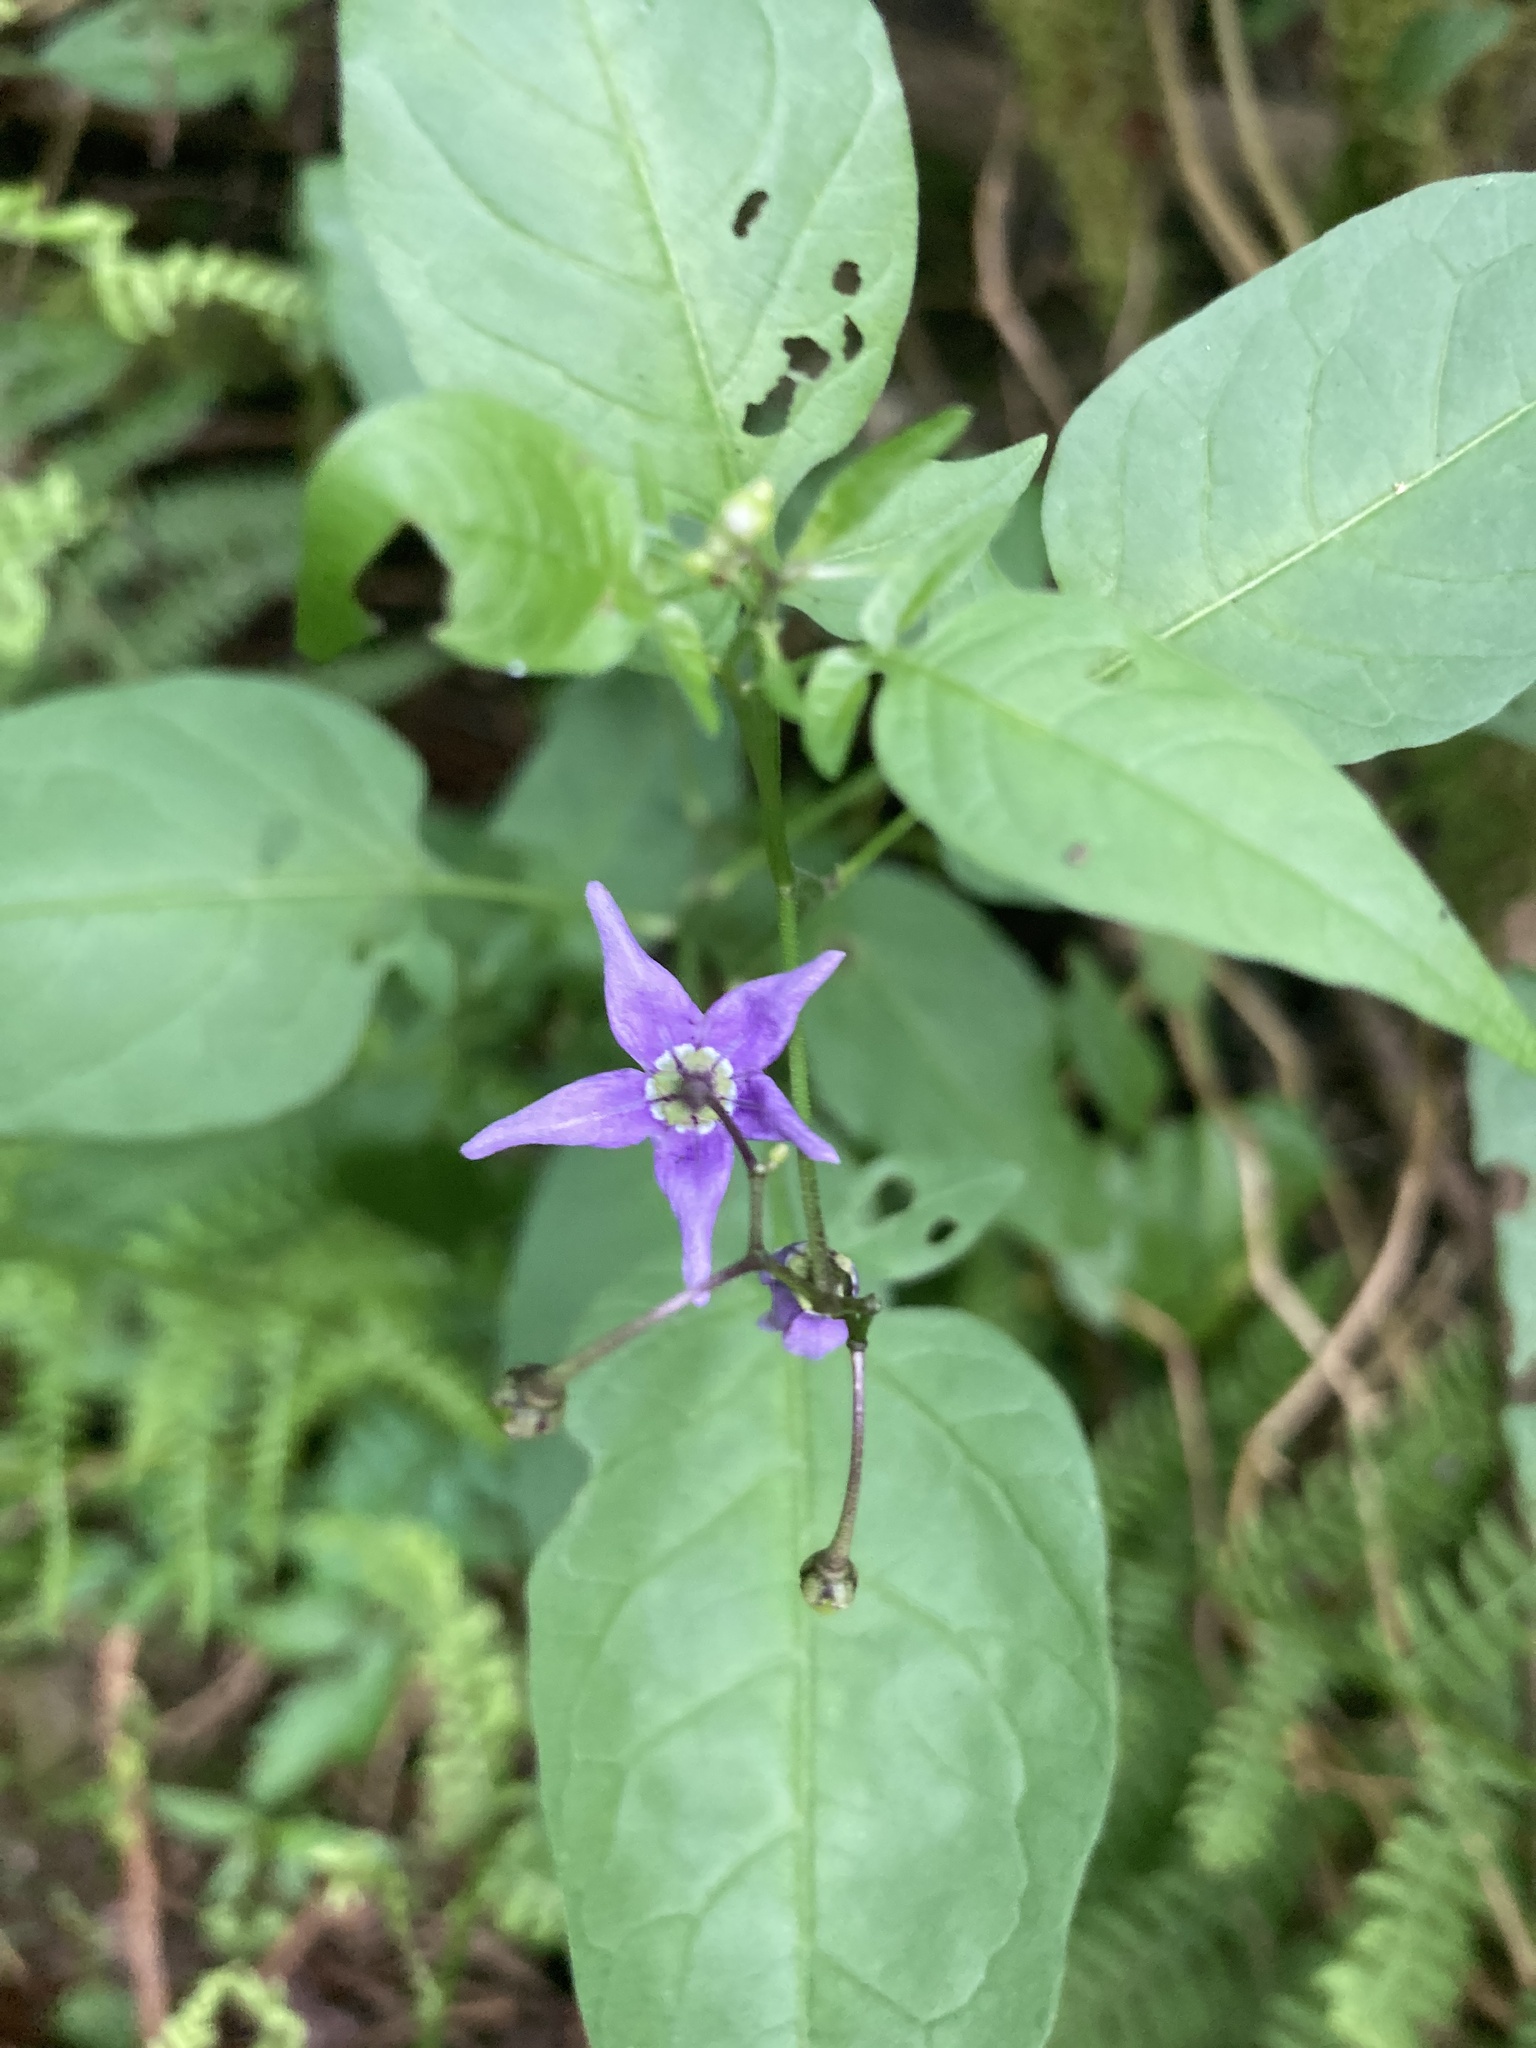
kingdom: Plantae
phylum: Tracheophyta
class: Magnoliopsida
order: Solanales
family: Solanaceae
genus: Solanum
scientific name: Solanum dulcamara
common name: Climbing nightshade
